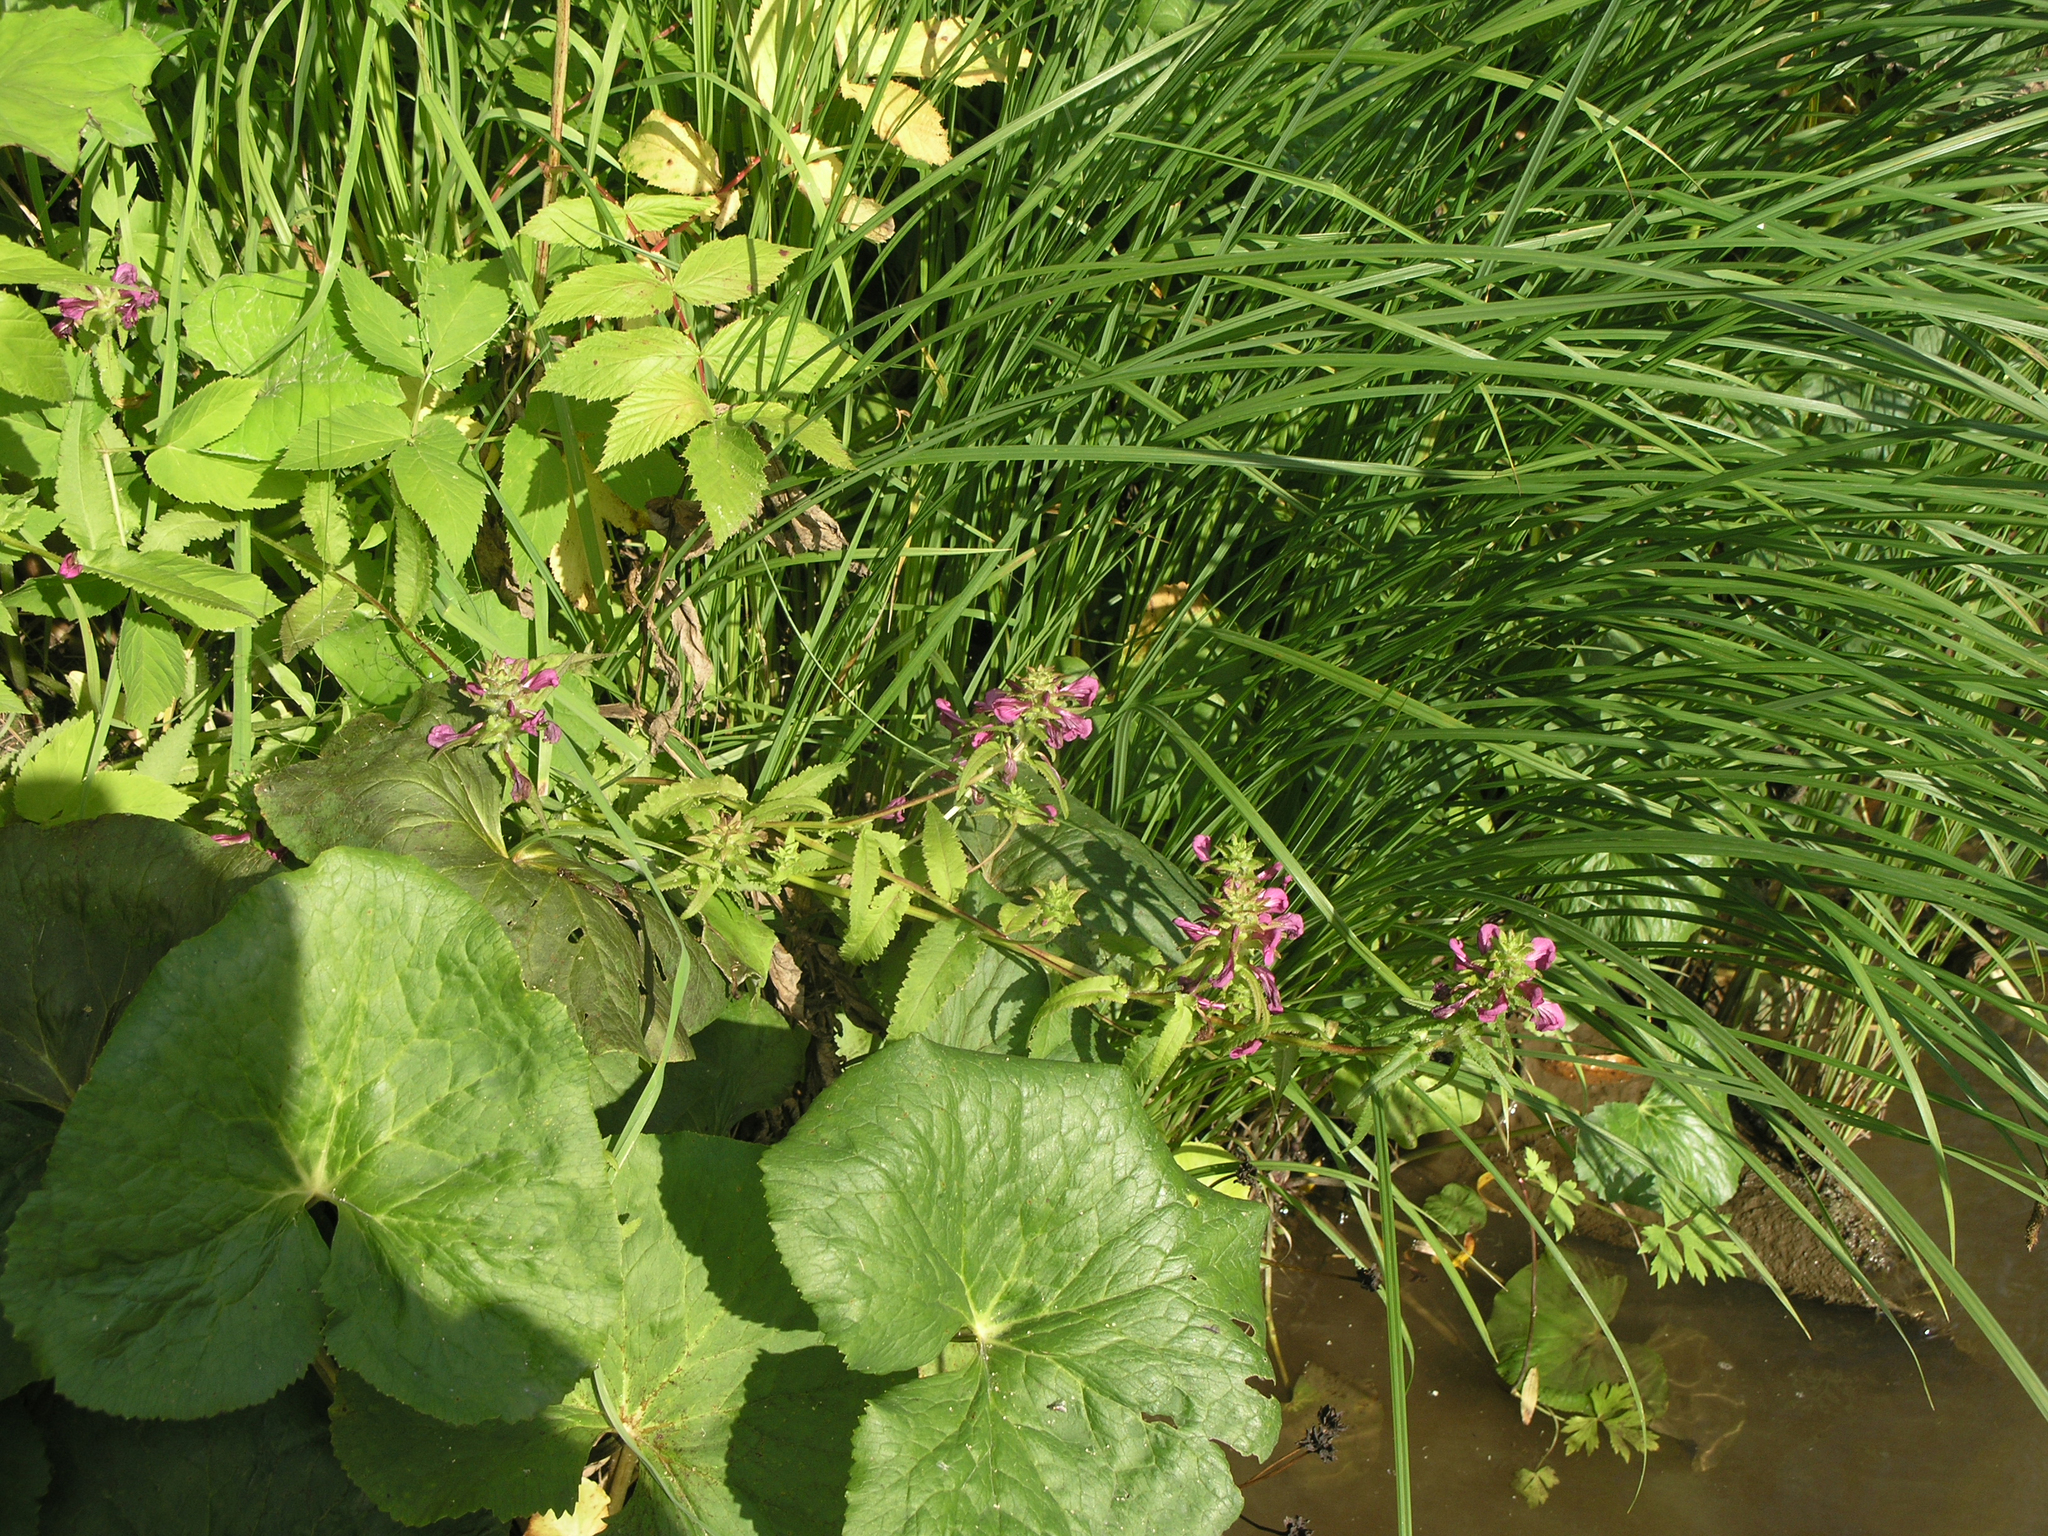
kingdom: Plantae
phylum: Tracheophyta
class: Magnoliopsida
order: Lamiales
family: Orobanchaceae
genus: Pedicularis
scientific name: Pedicularis resupinata
